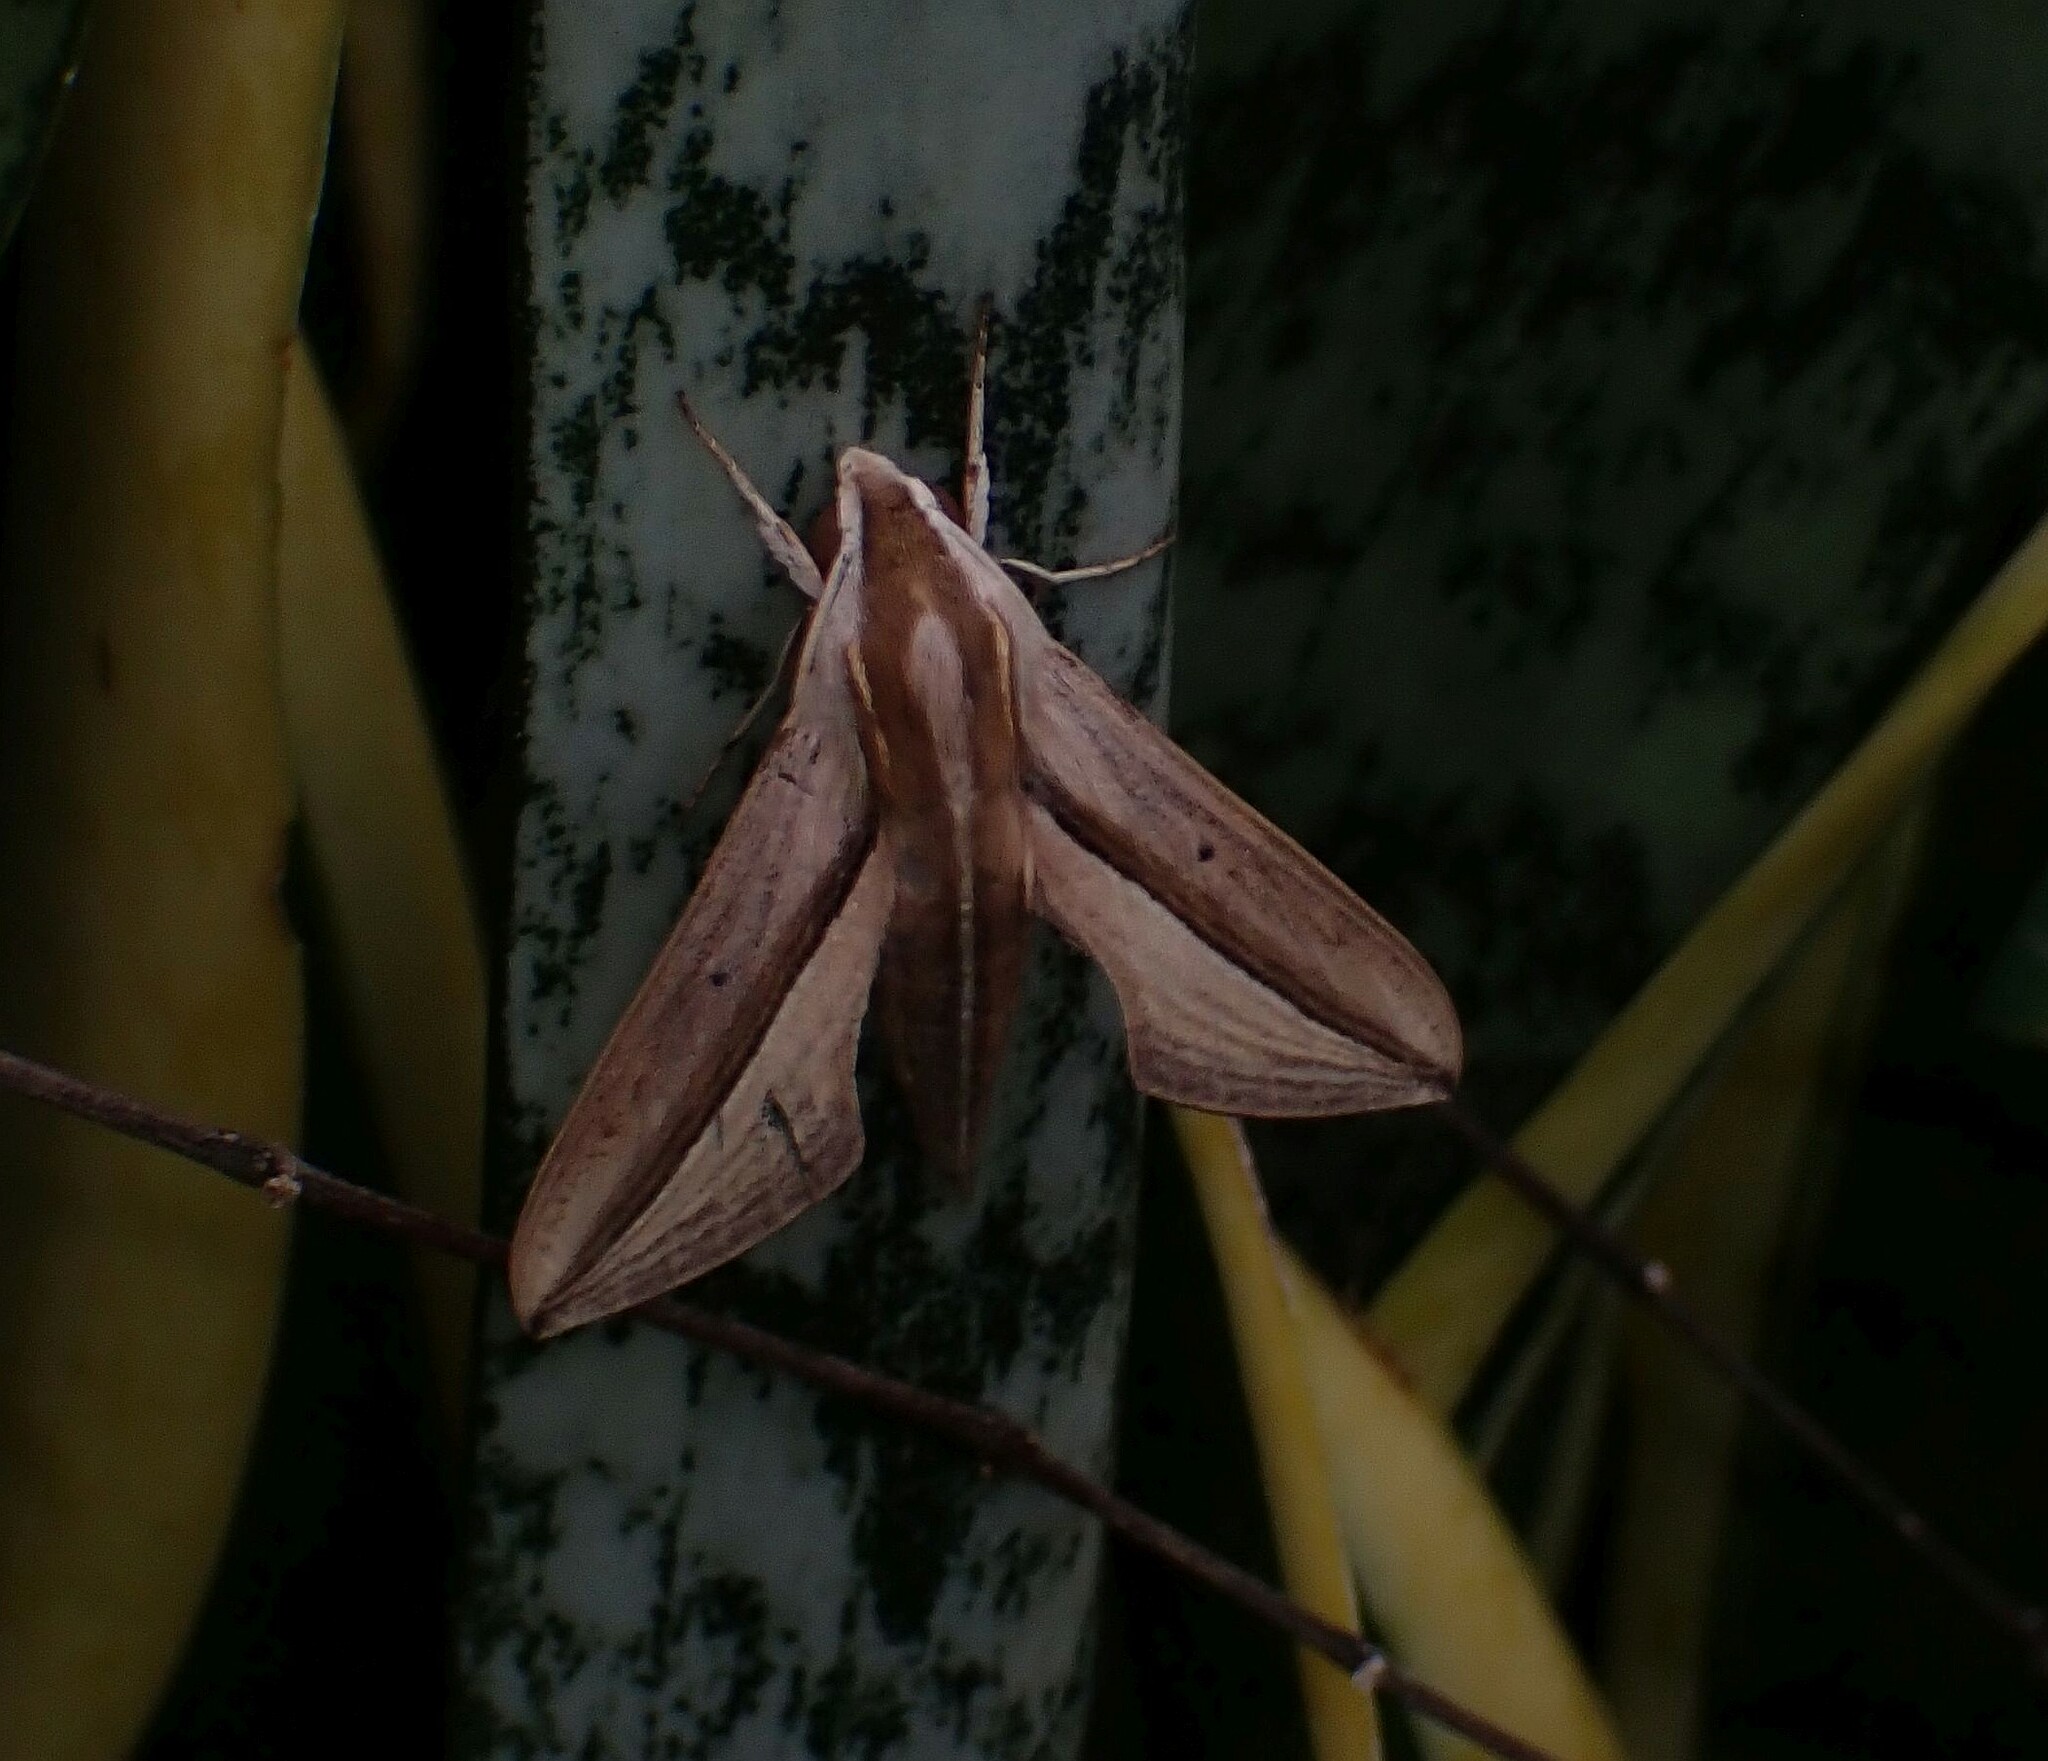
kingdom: Animalia
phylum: Arthropoda
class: Insecta
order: Lepidoptera
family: Sphingidae
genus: Theretra
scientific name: Theretra silhetensis
